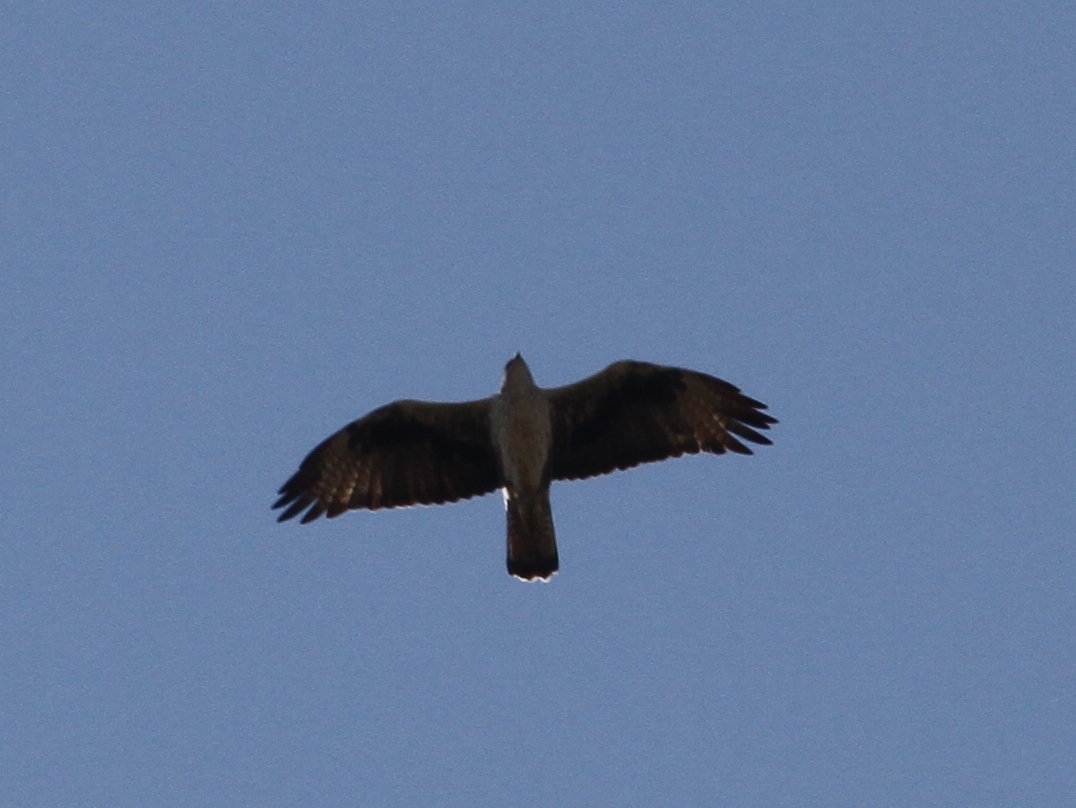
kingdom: Animalia
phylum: Chordata
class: Aves
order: Accipitriformes
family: Accipitridae
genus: Aquila
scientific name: Aquila fasciata
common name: Bonelli's eagle
